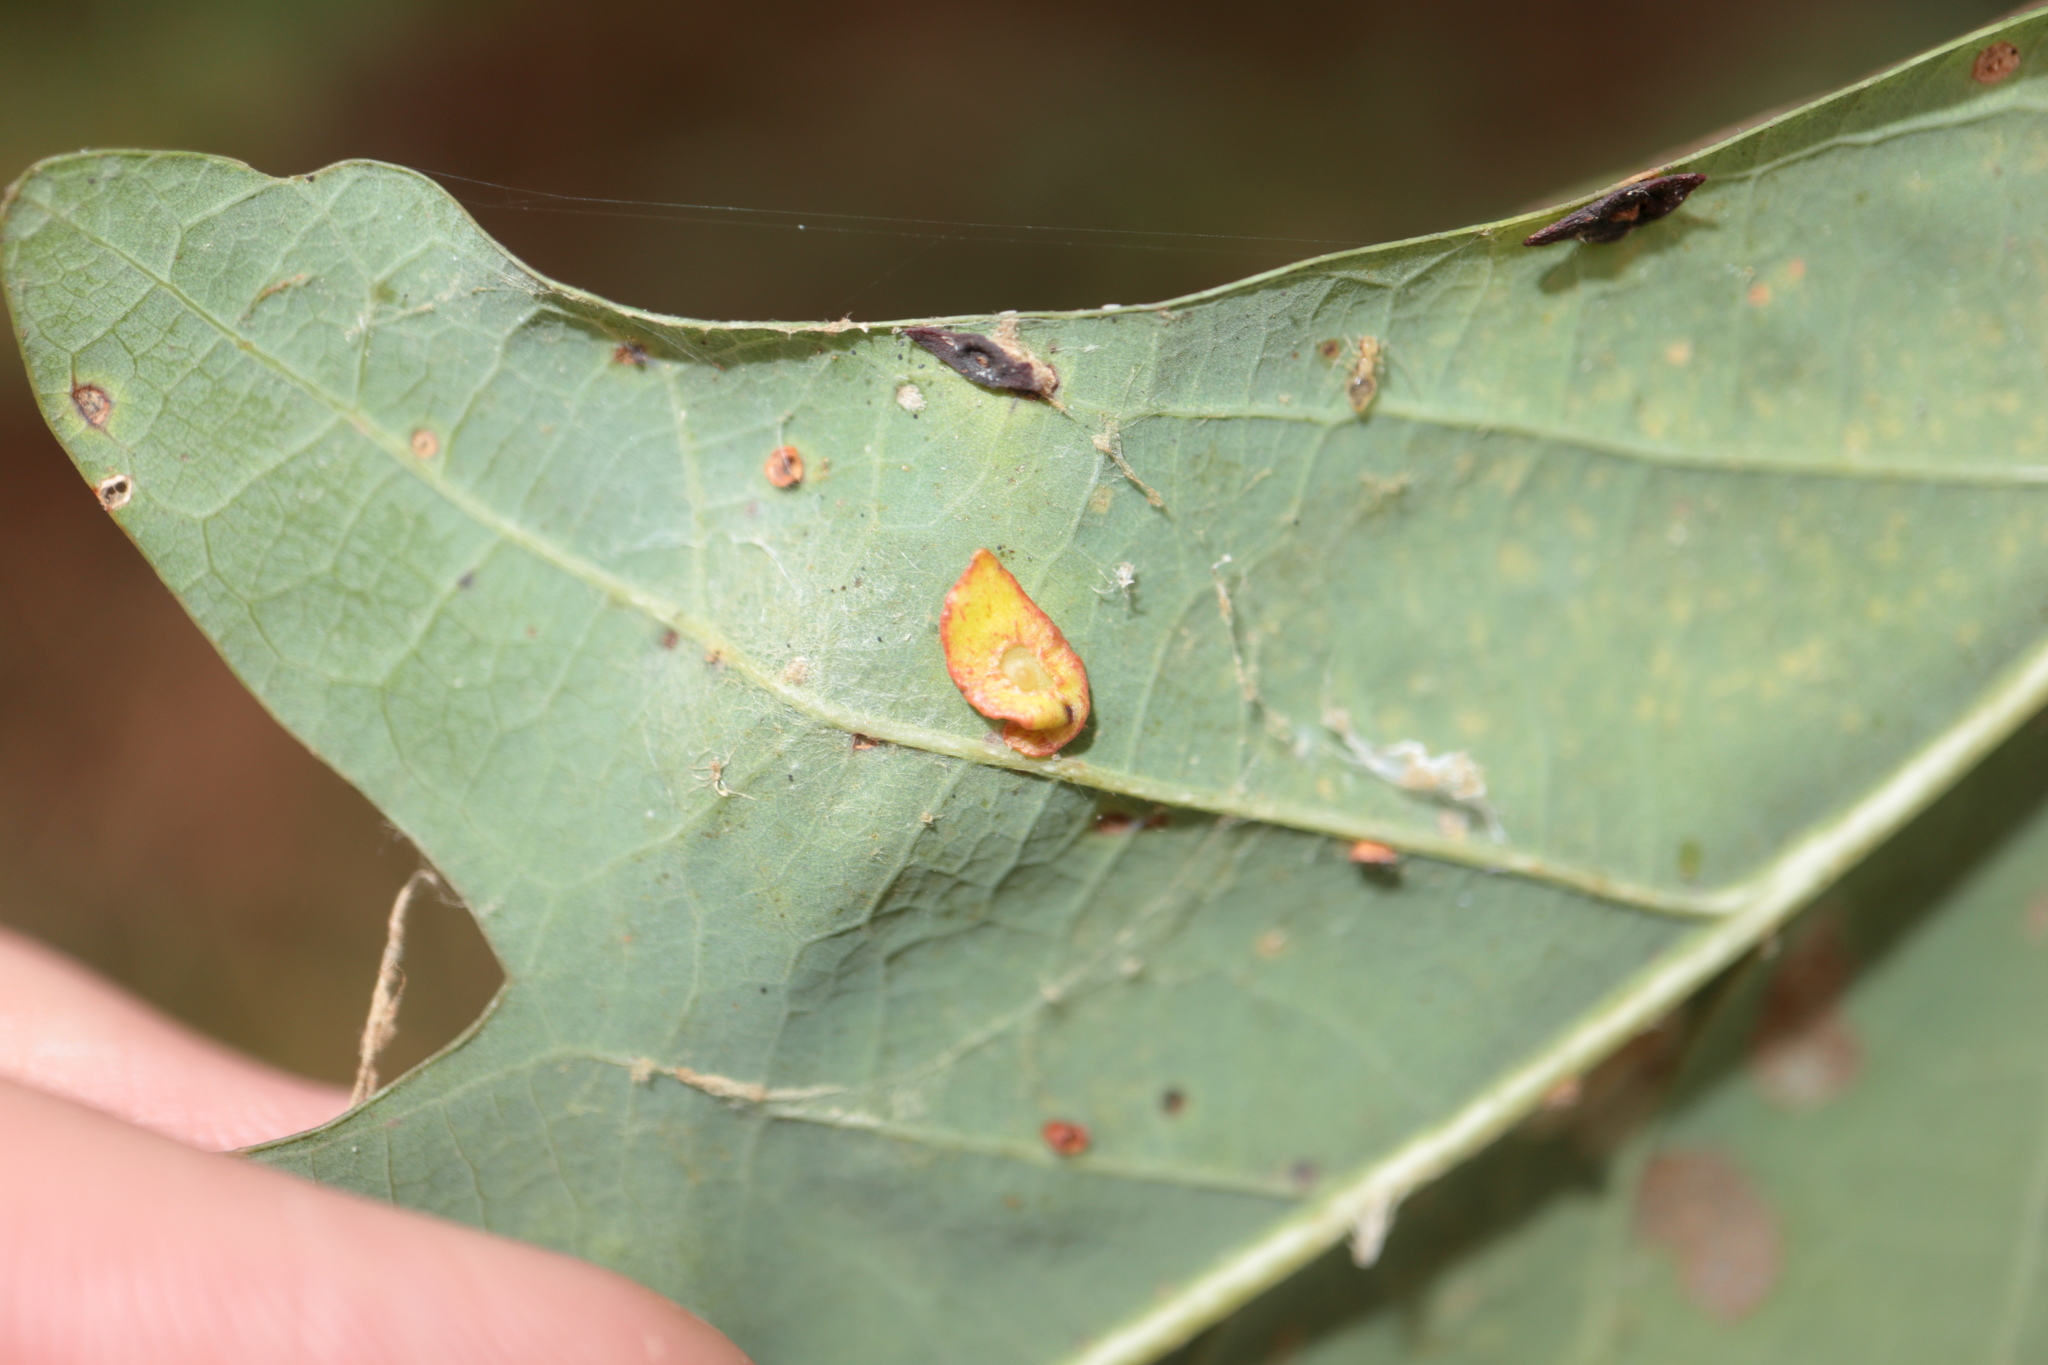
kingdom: Animalia
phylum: Arthropoda
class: Insecta
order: Hymenoptera
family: Cynipidae
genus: Phylloteras
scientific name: Phylloteras
